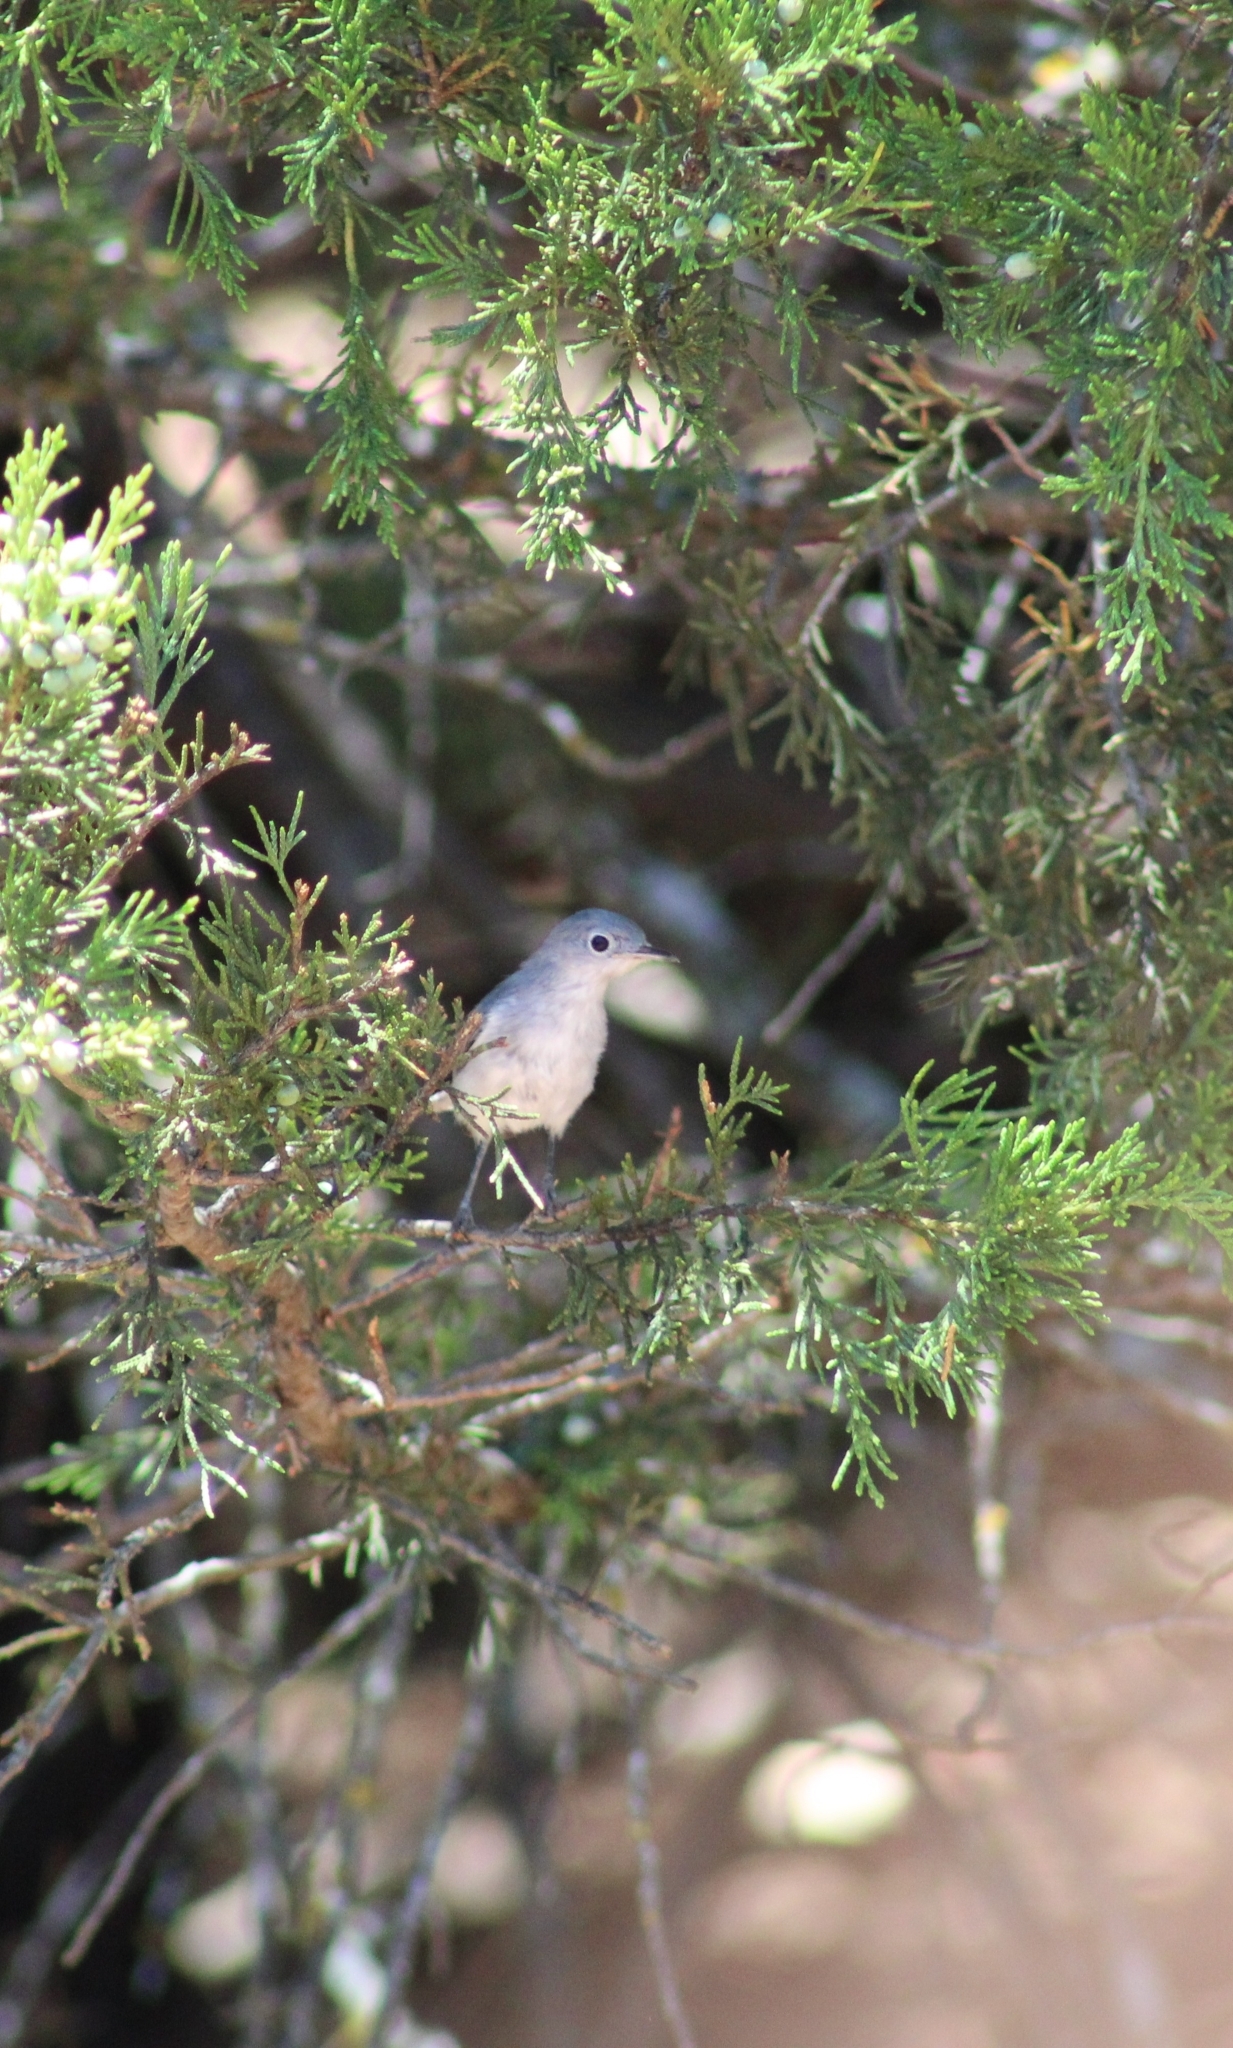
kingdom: Animalia
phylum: Chordata
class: Aves
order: Passeriformes
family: Polioptilidae
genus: Polioptila
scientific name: Polioptila caerulea
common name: Blue-gray gnatcatcher
